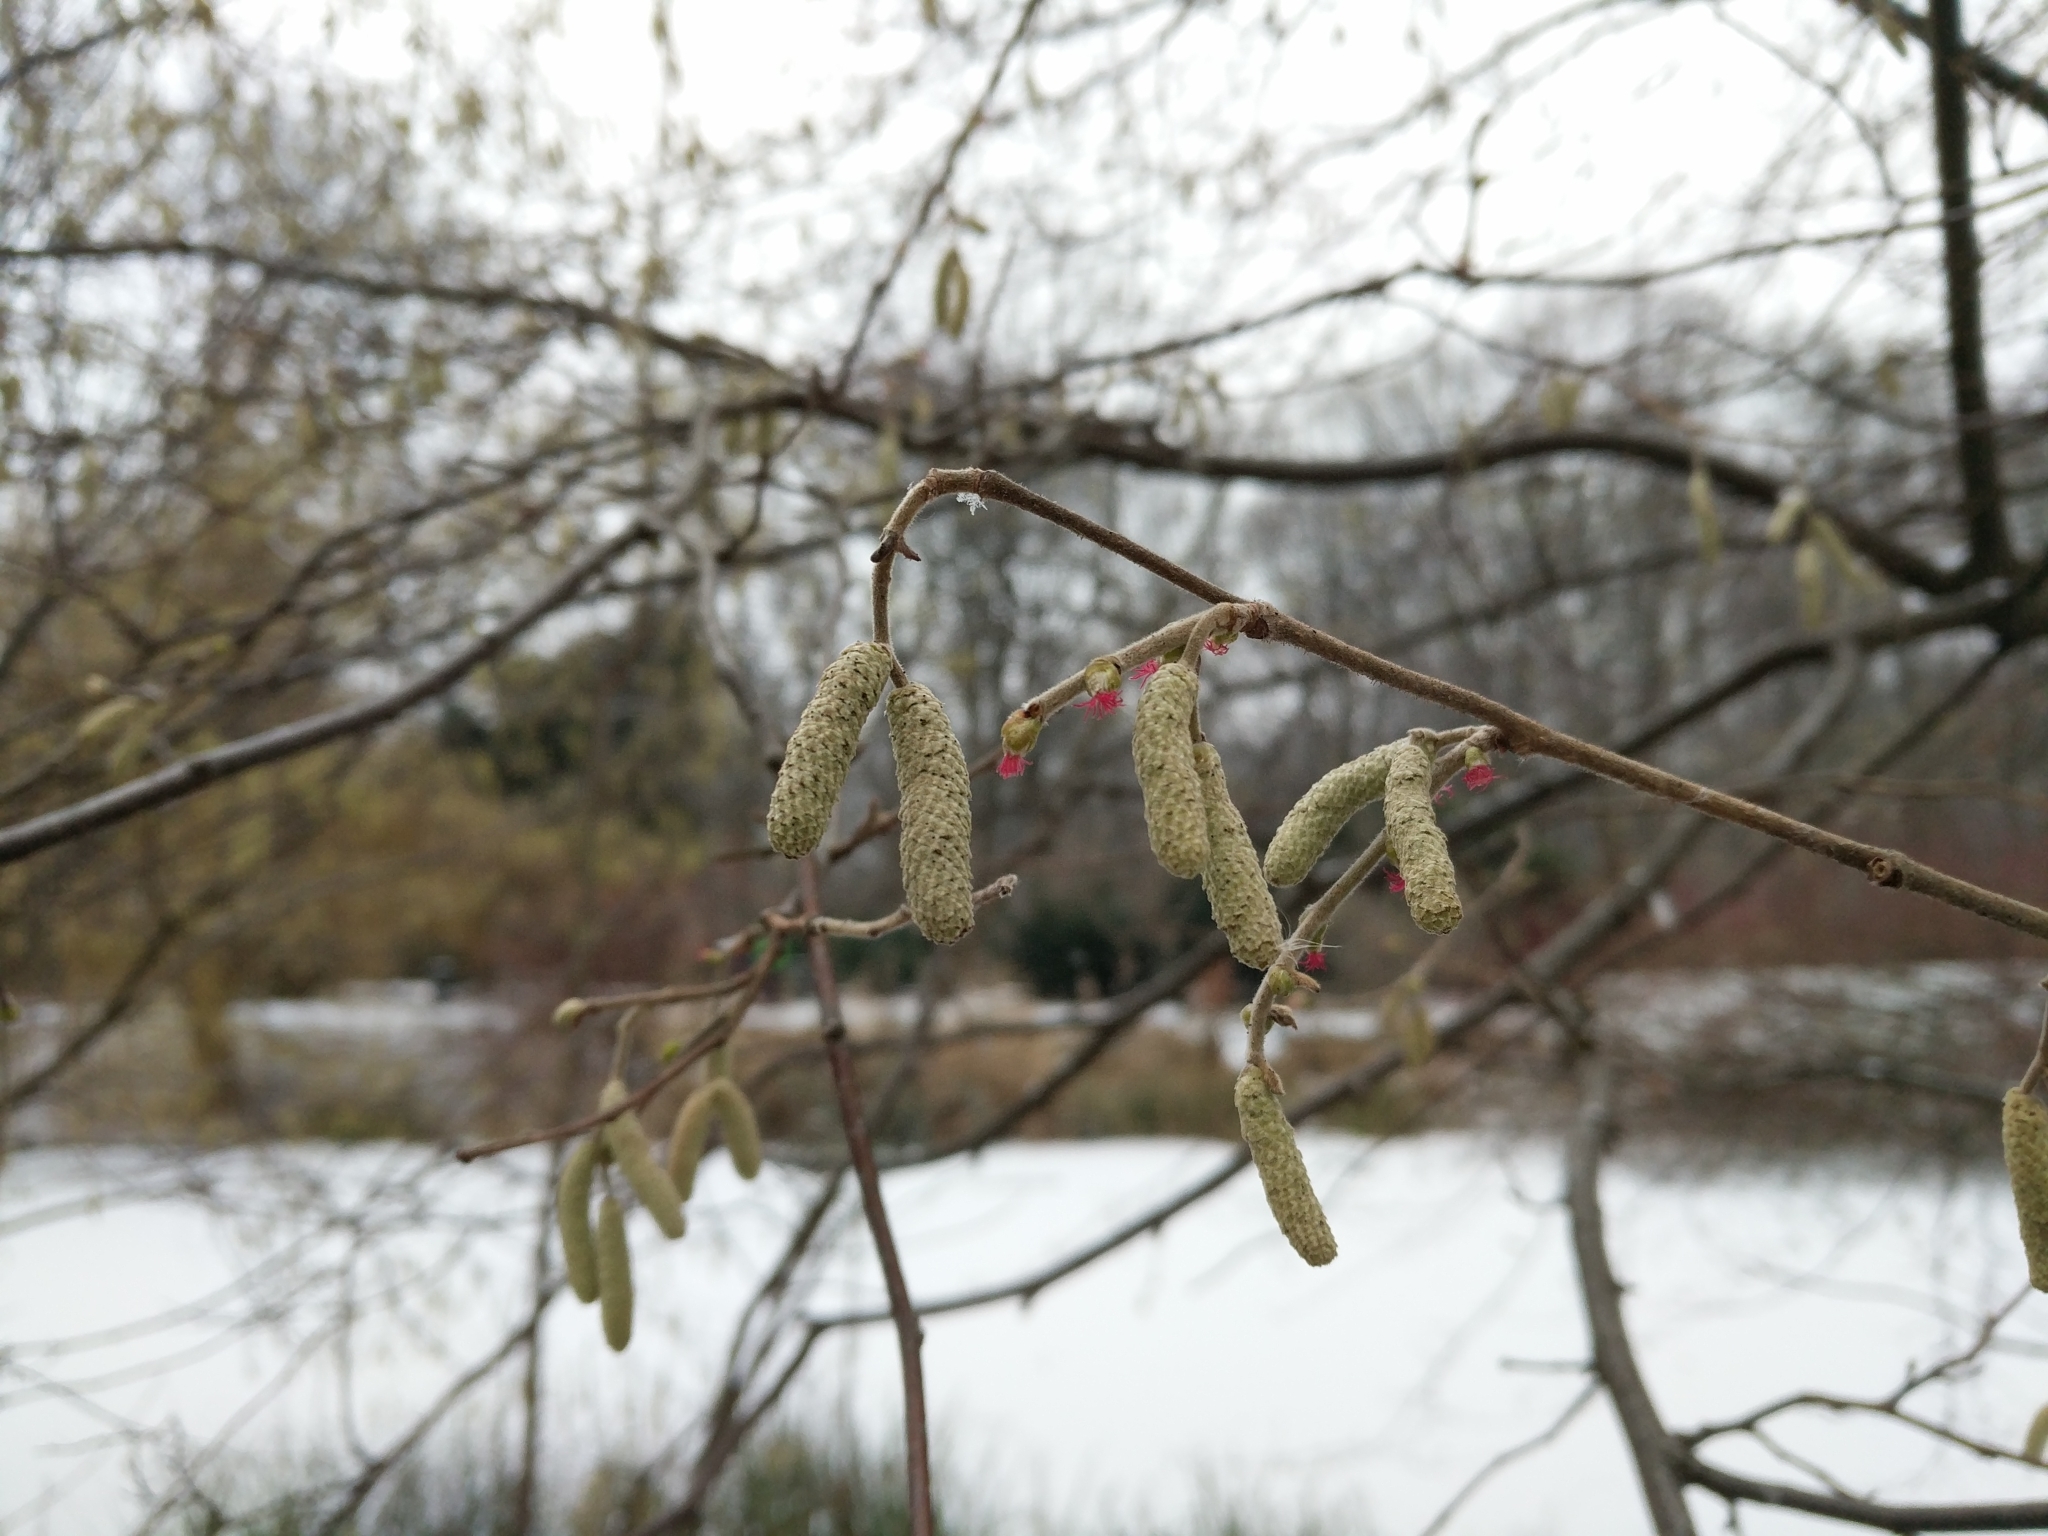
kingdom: Plantae
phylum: Tracheophyta
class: Magnoliopsida
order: Fagales
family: Betulaceae
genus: Corylus
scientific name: Corylus avellana
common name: European hazel
